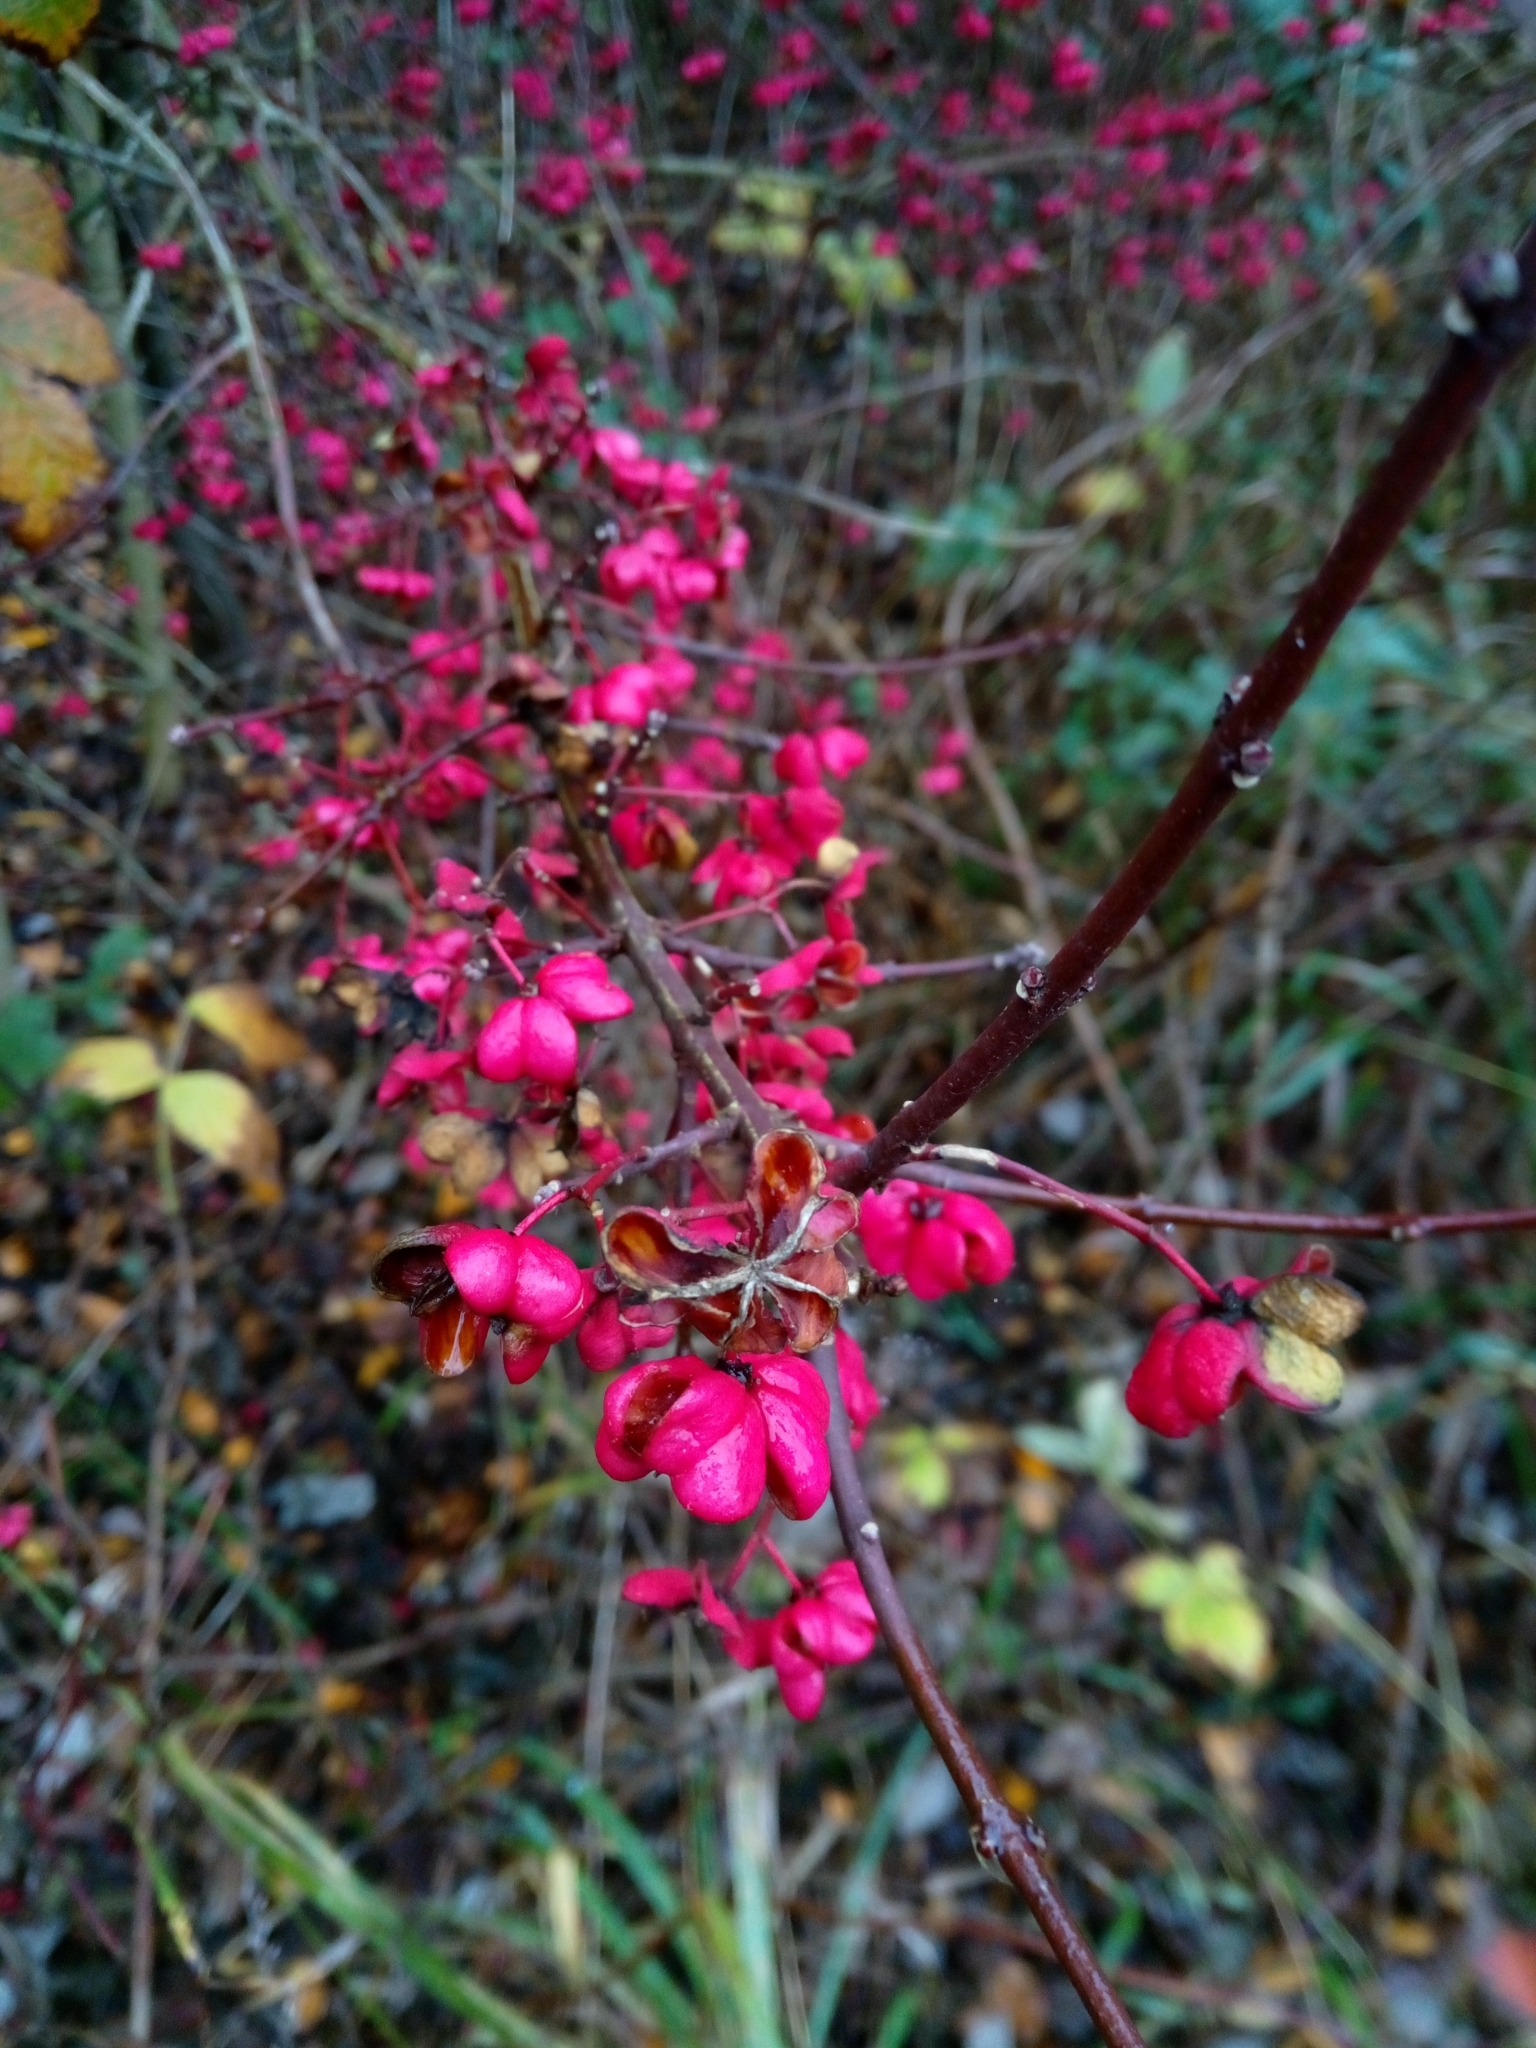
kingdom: Plantae
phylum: Tracheophyta
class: Magnoliopsida
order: Celastrales
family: Celastraceae
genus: Euonymus
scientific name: Euonymus europaeus
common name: Spindle
